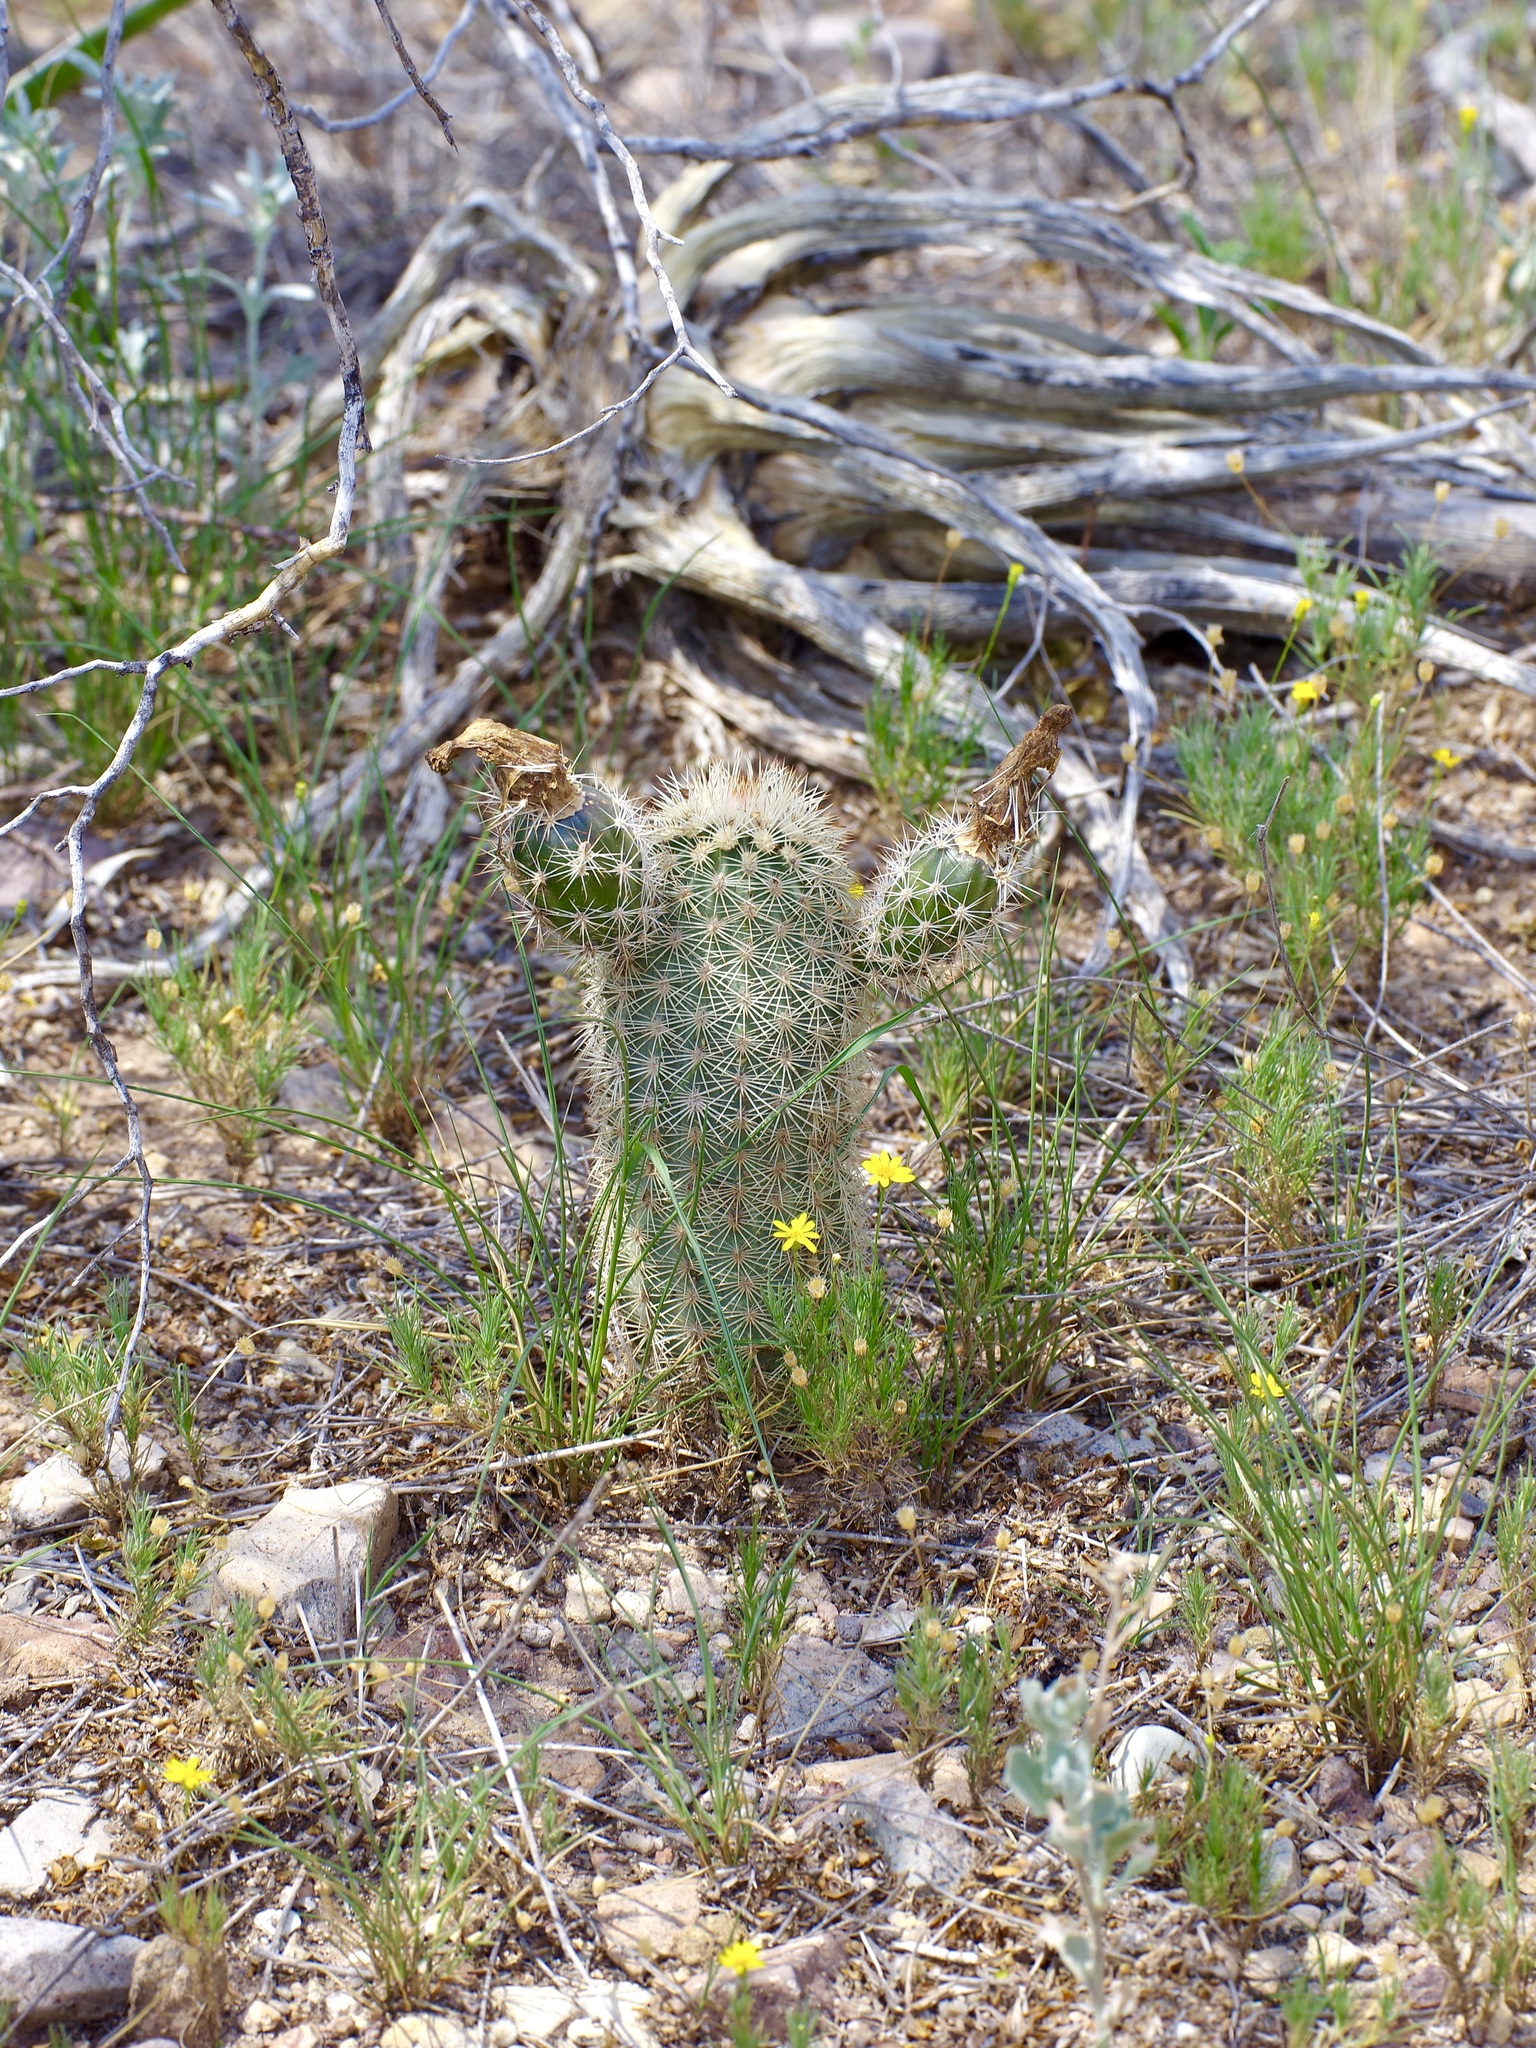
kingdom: Plantae
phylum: Tracheophyta
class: Magnoliopsida
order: Caryophyllales
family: Cactaceae
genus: Echinocereus
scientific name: Echinocereus dasyacanthus
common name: Spiny hedgehog cactus
